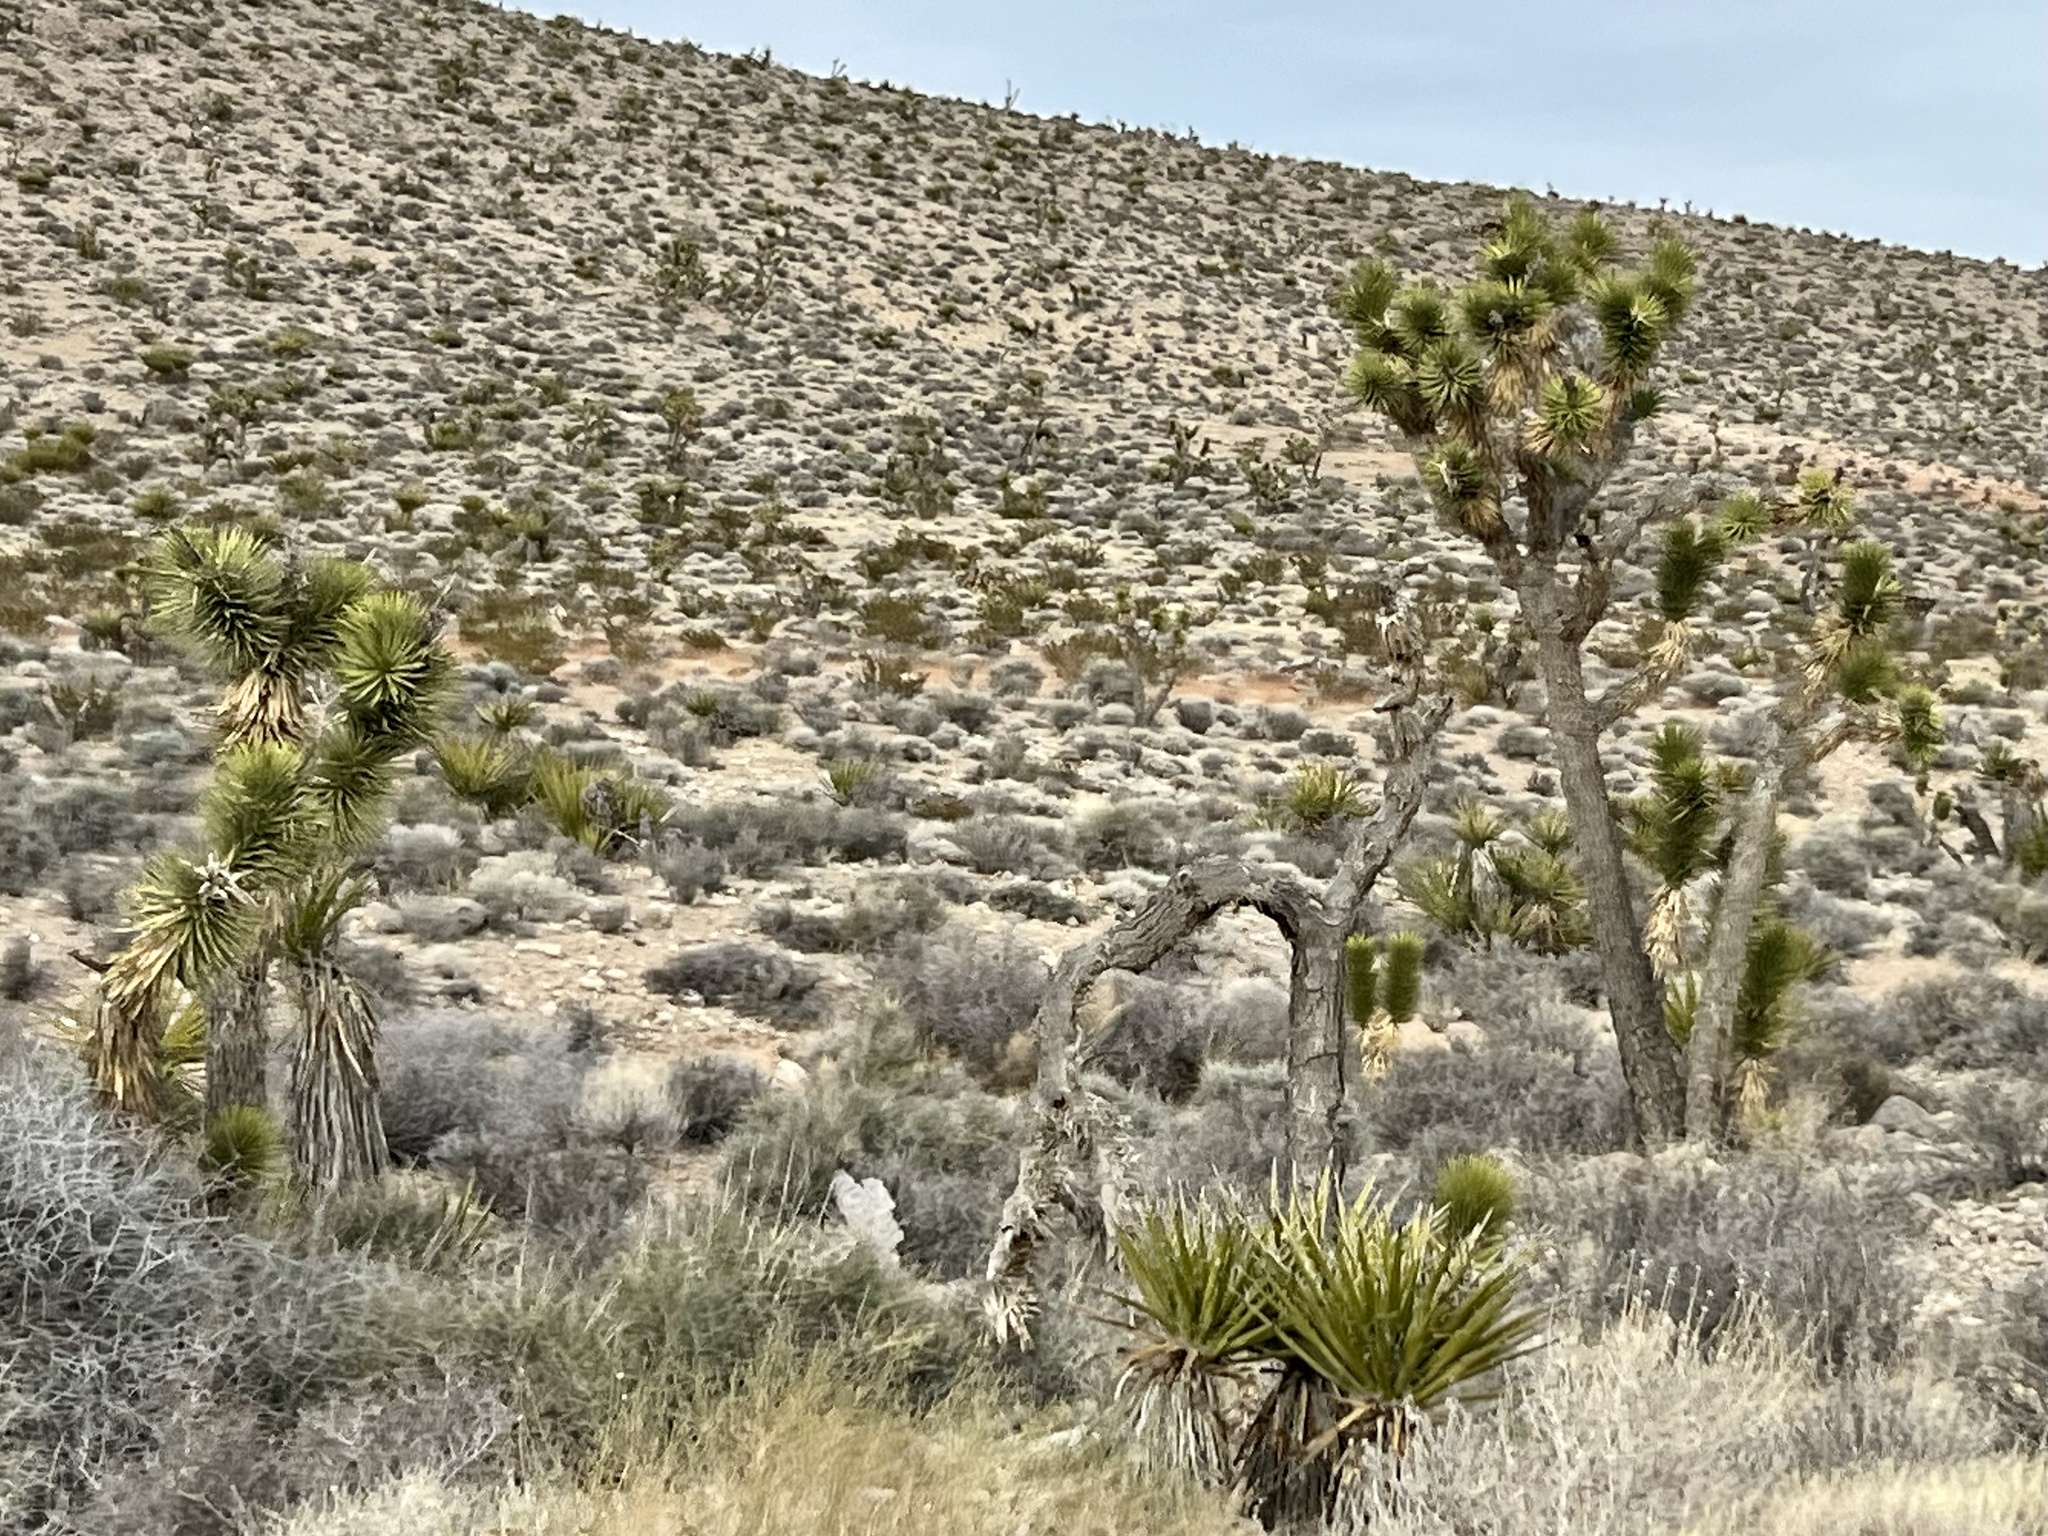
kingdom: Plantae
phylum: Tracheophyta
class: Liliopsida
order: Asparagales
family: Asparagaceae
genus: Yucca
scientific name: Yucca brevifolia
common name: Joshua tree
